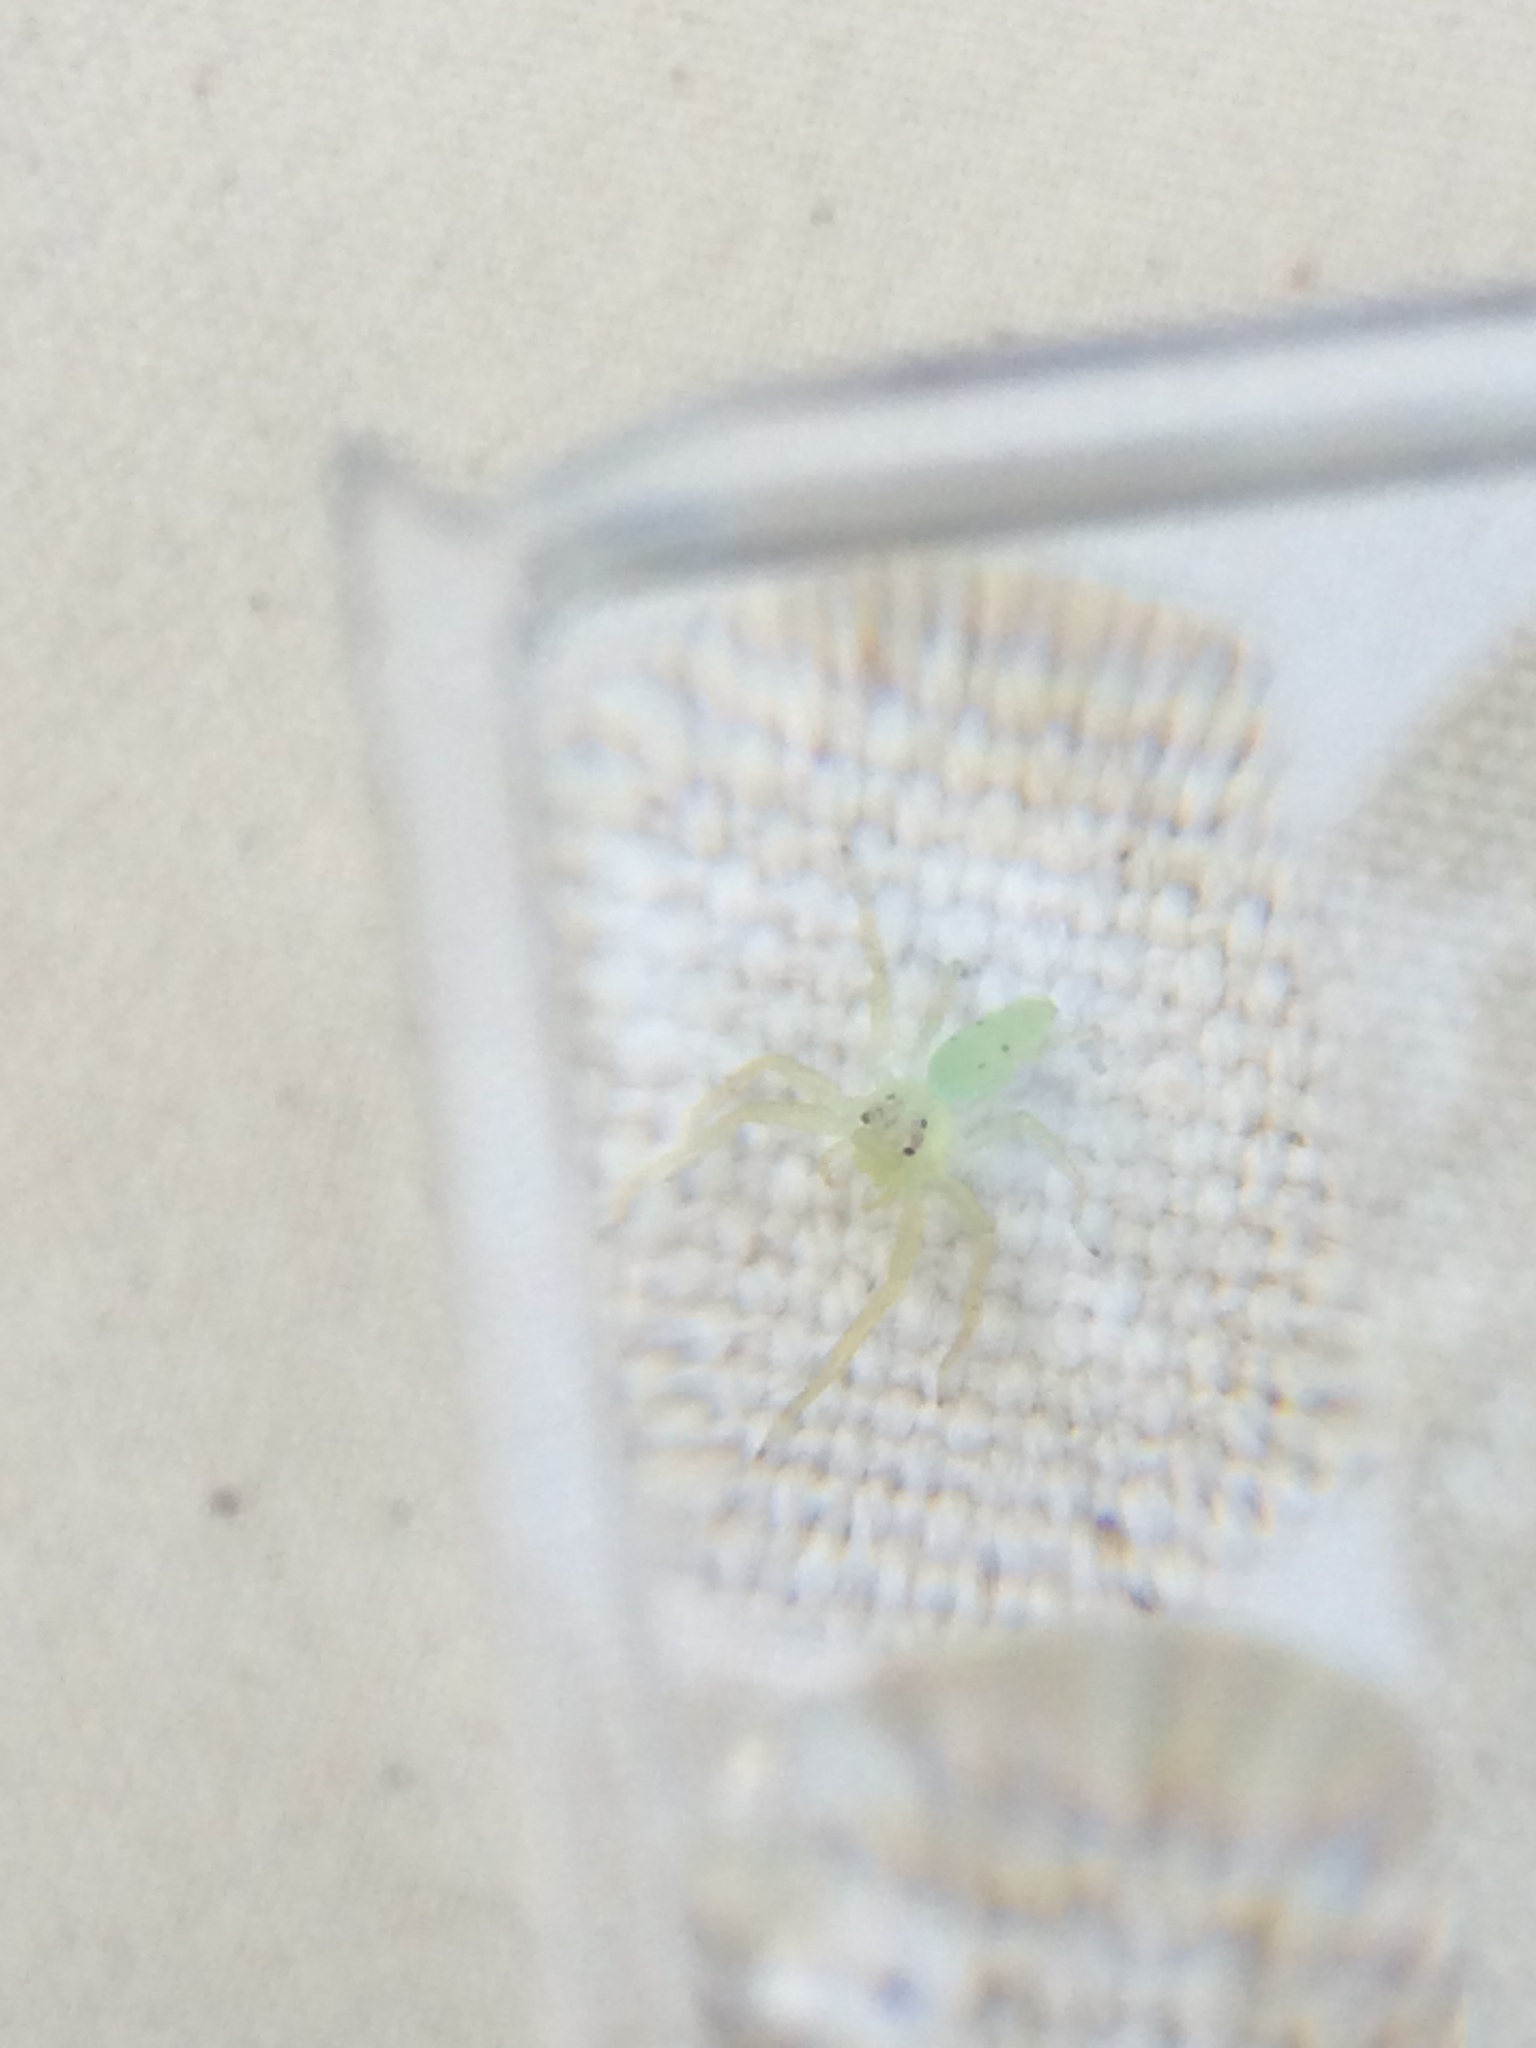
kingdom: Animalia
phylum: Arthropoda
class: Arachnida
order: Araneae
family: Salticidae
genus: Lyssomanes
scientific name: Lyssomanes viridis
